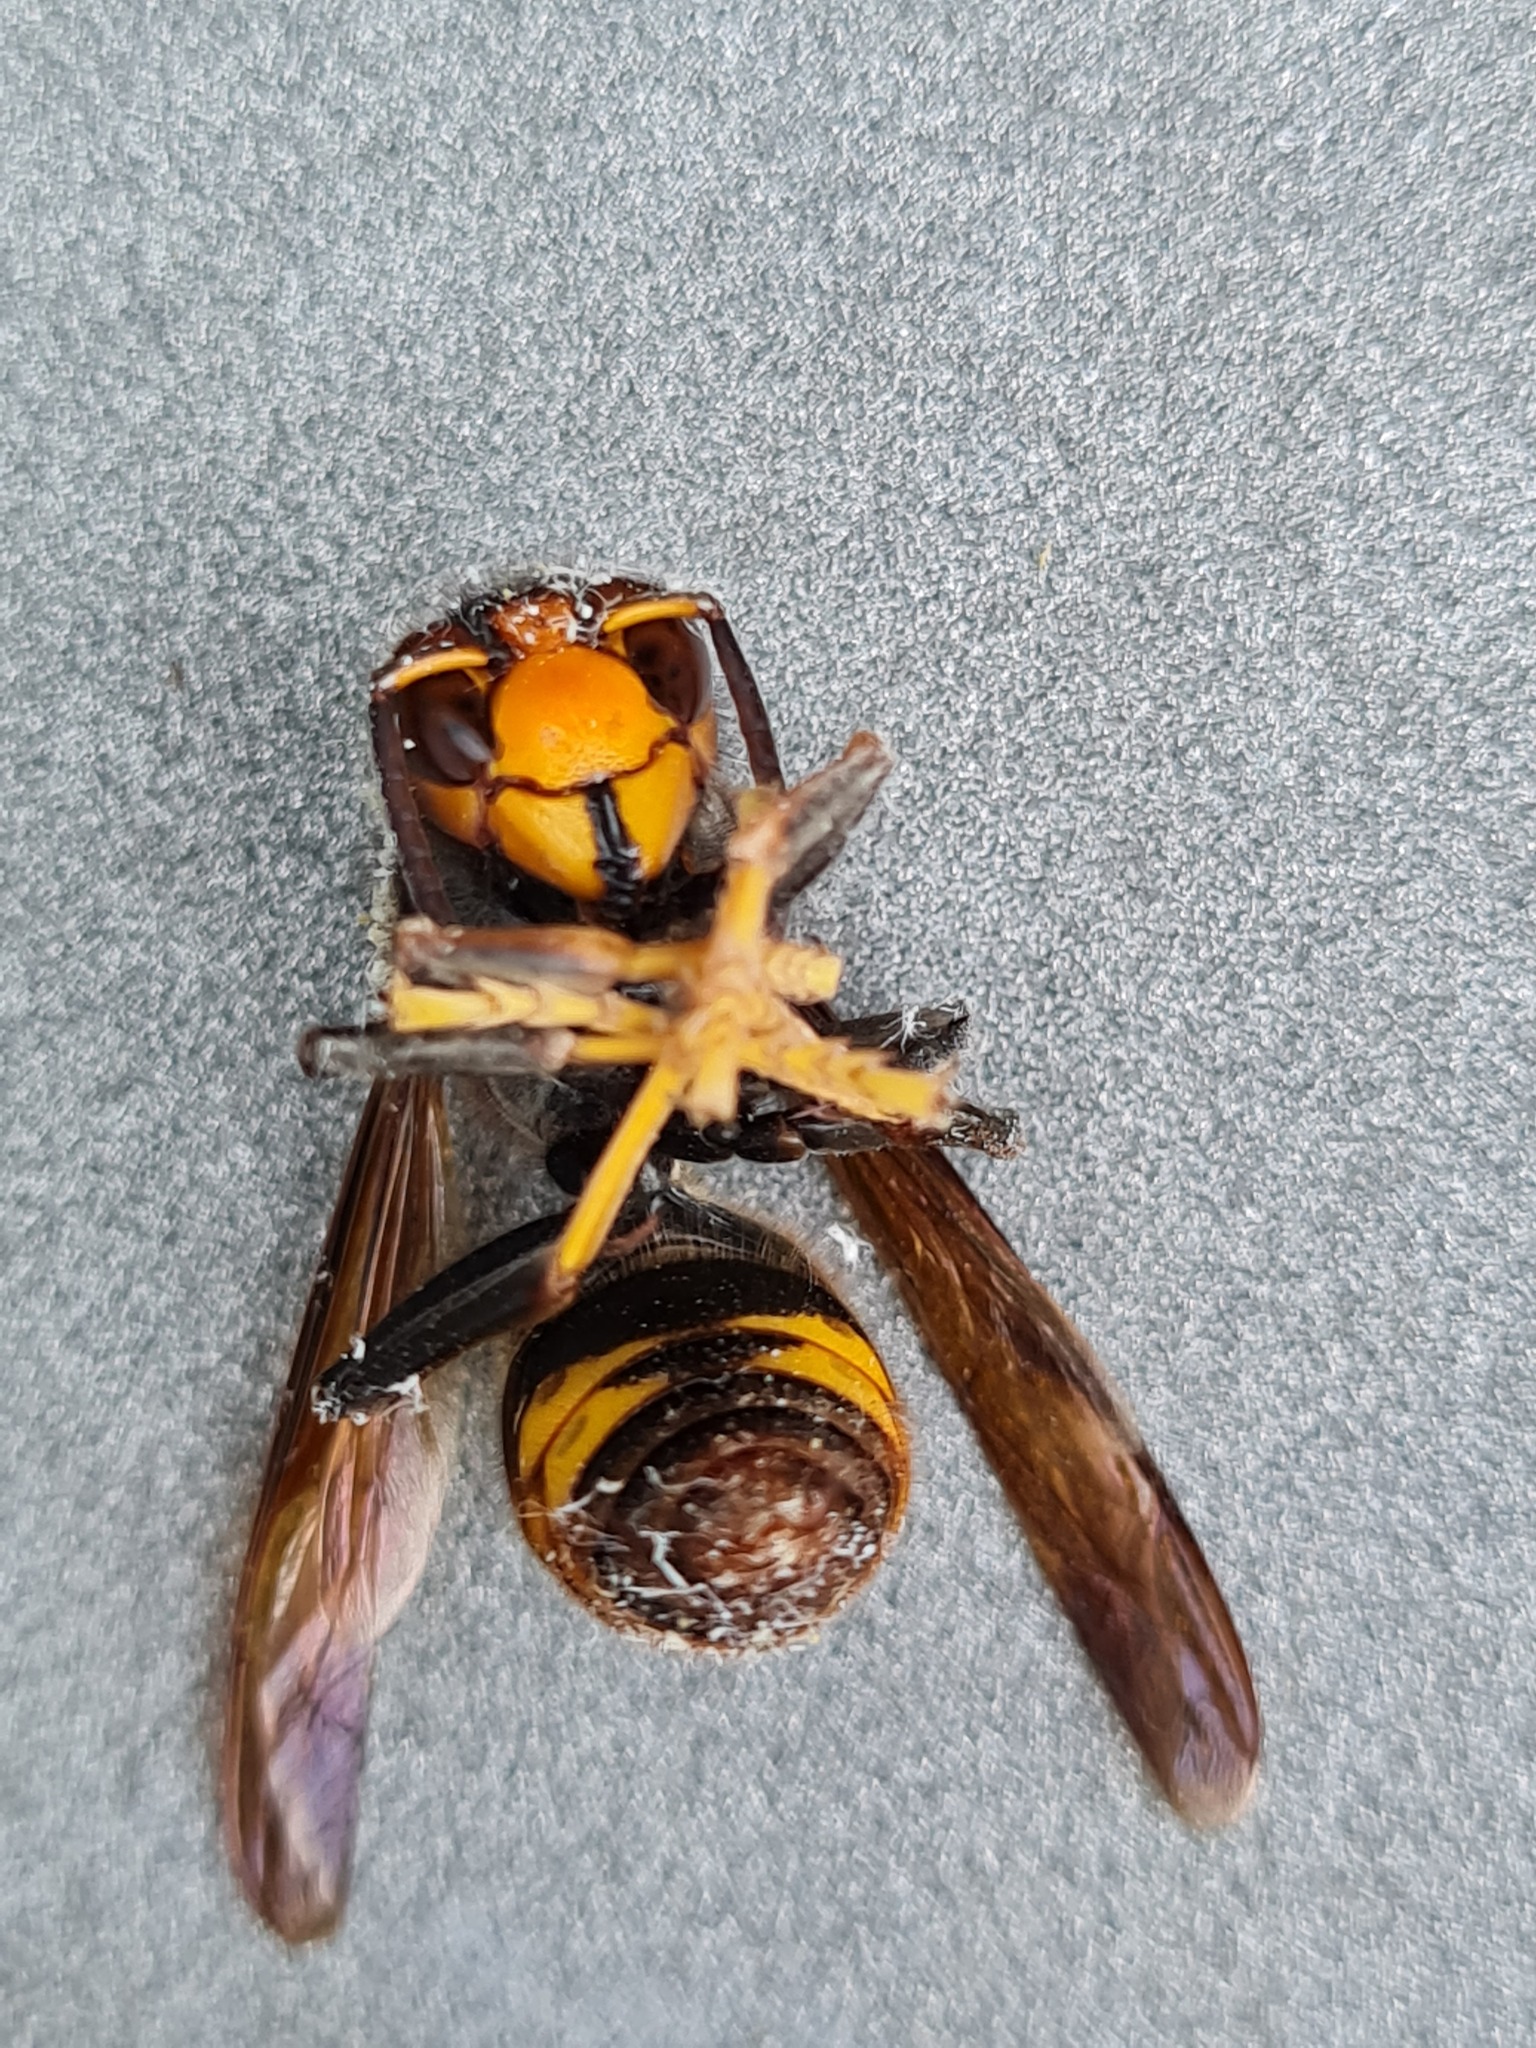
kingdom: Animalia
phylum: Arthropoda
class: Insecta
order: Hymenoptera
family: Vespidae
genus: Vespa
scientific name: Vespa velutina
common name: Asian hornet
